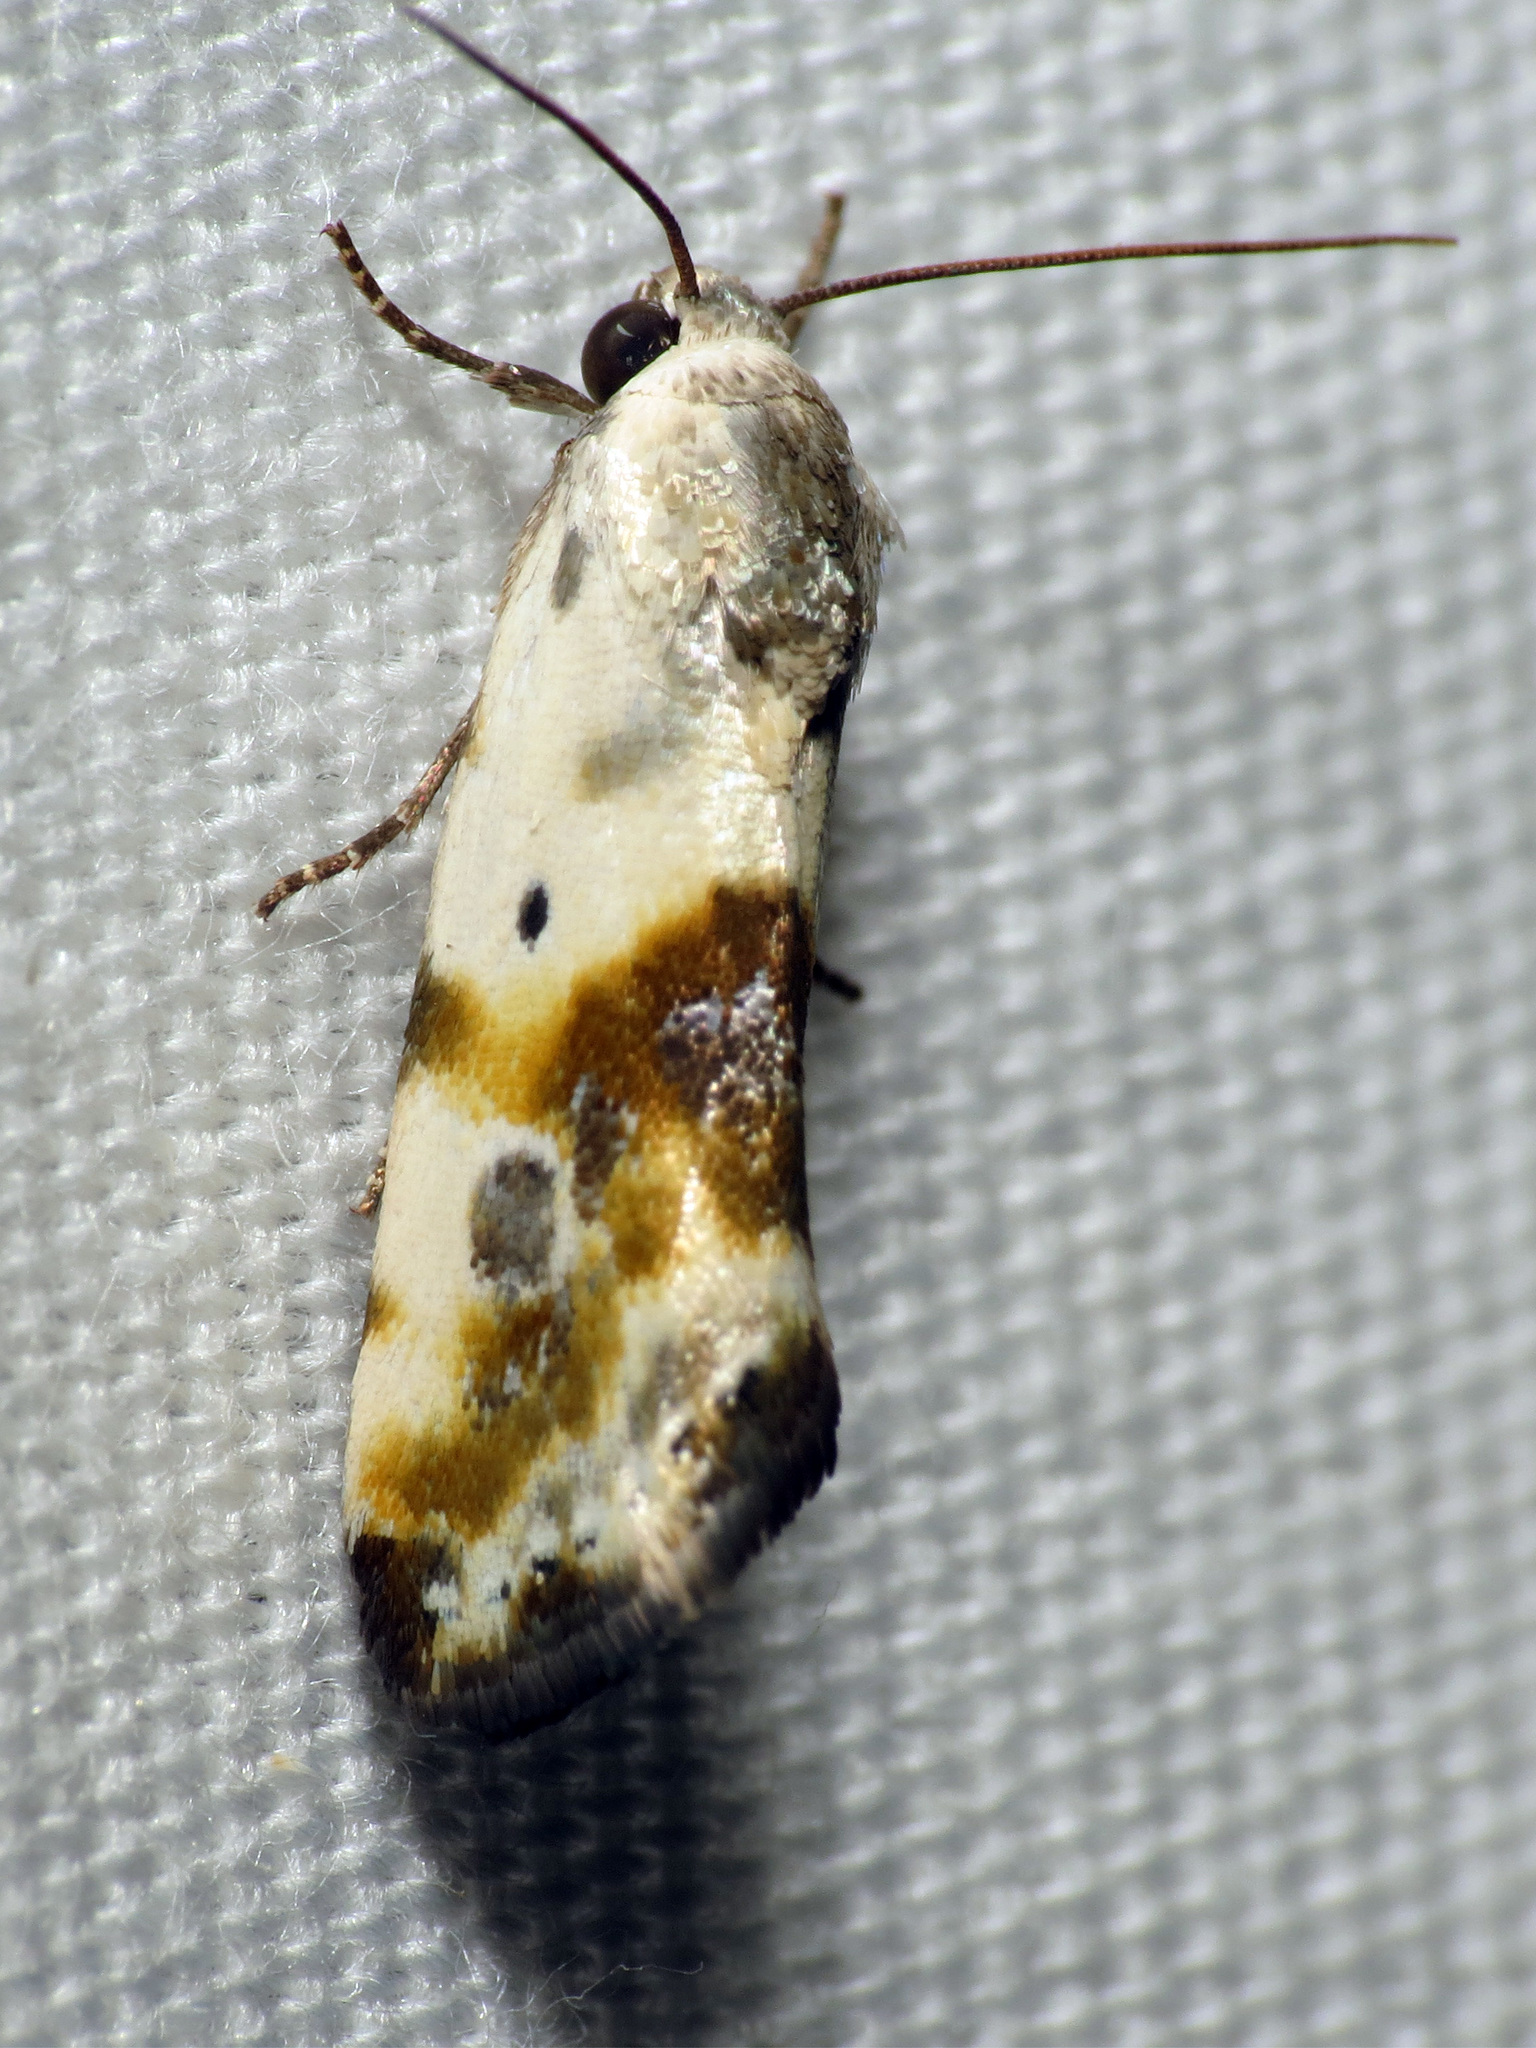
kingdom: Animalia
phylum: Arthropoda
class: Insecta
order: Lepidoptera
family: Noctuidae
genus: Acontia
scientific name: Acontia candefacta
